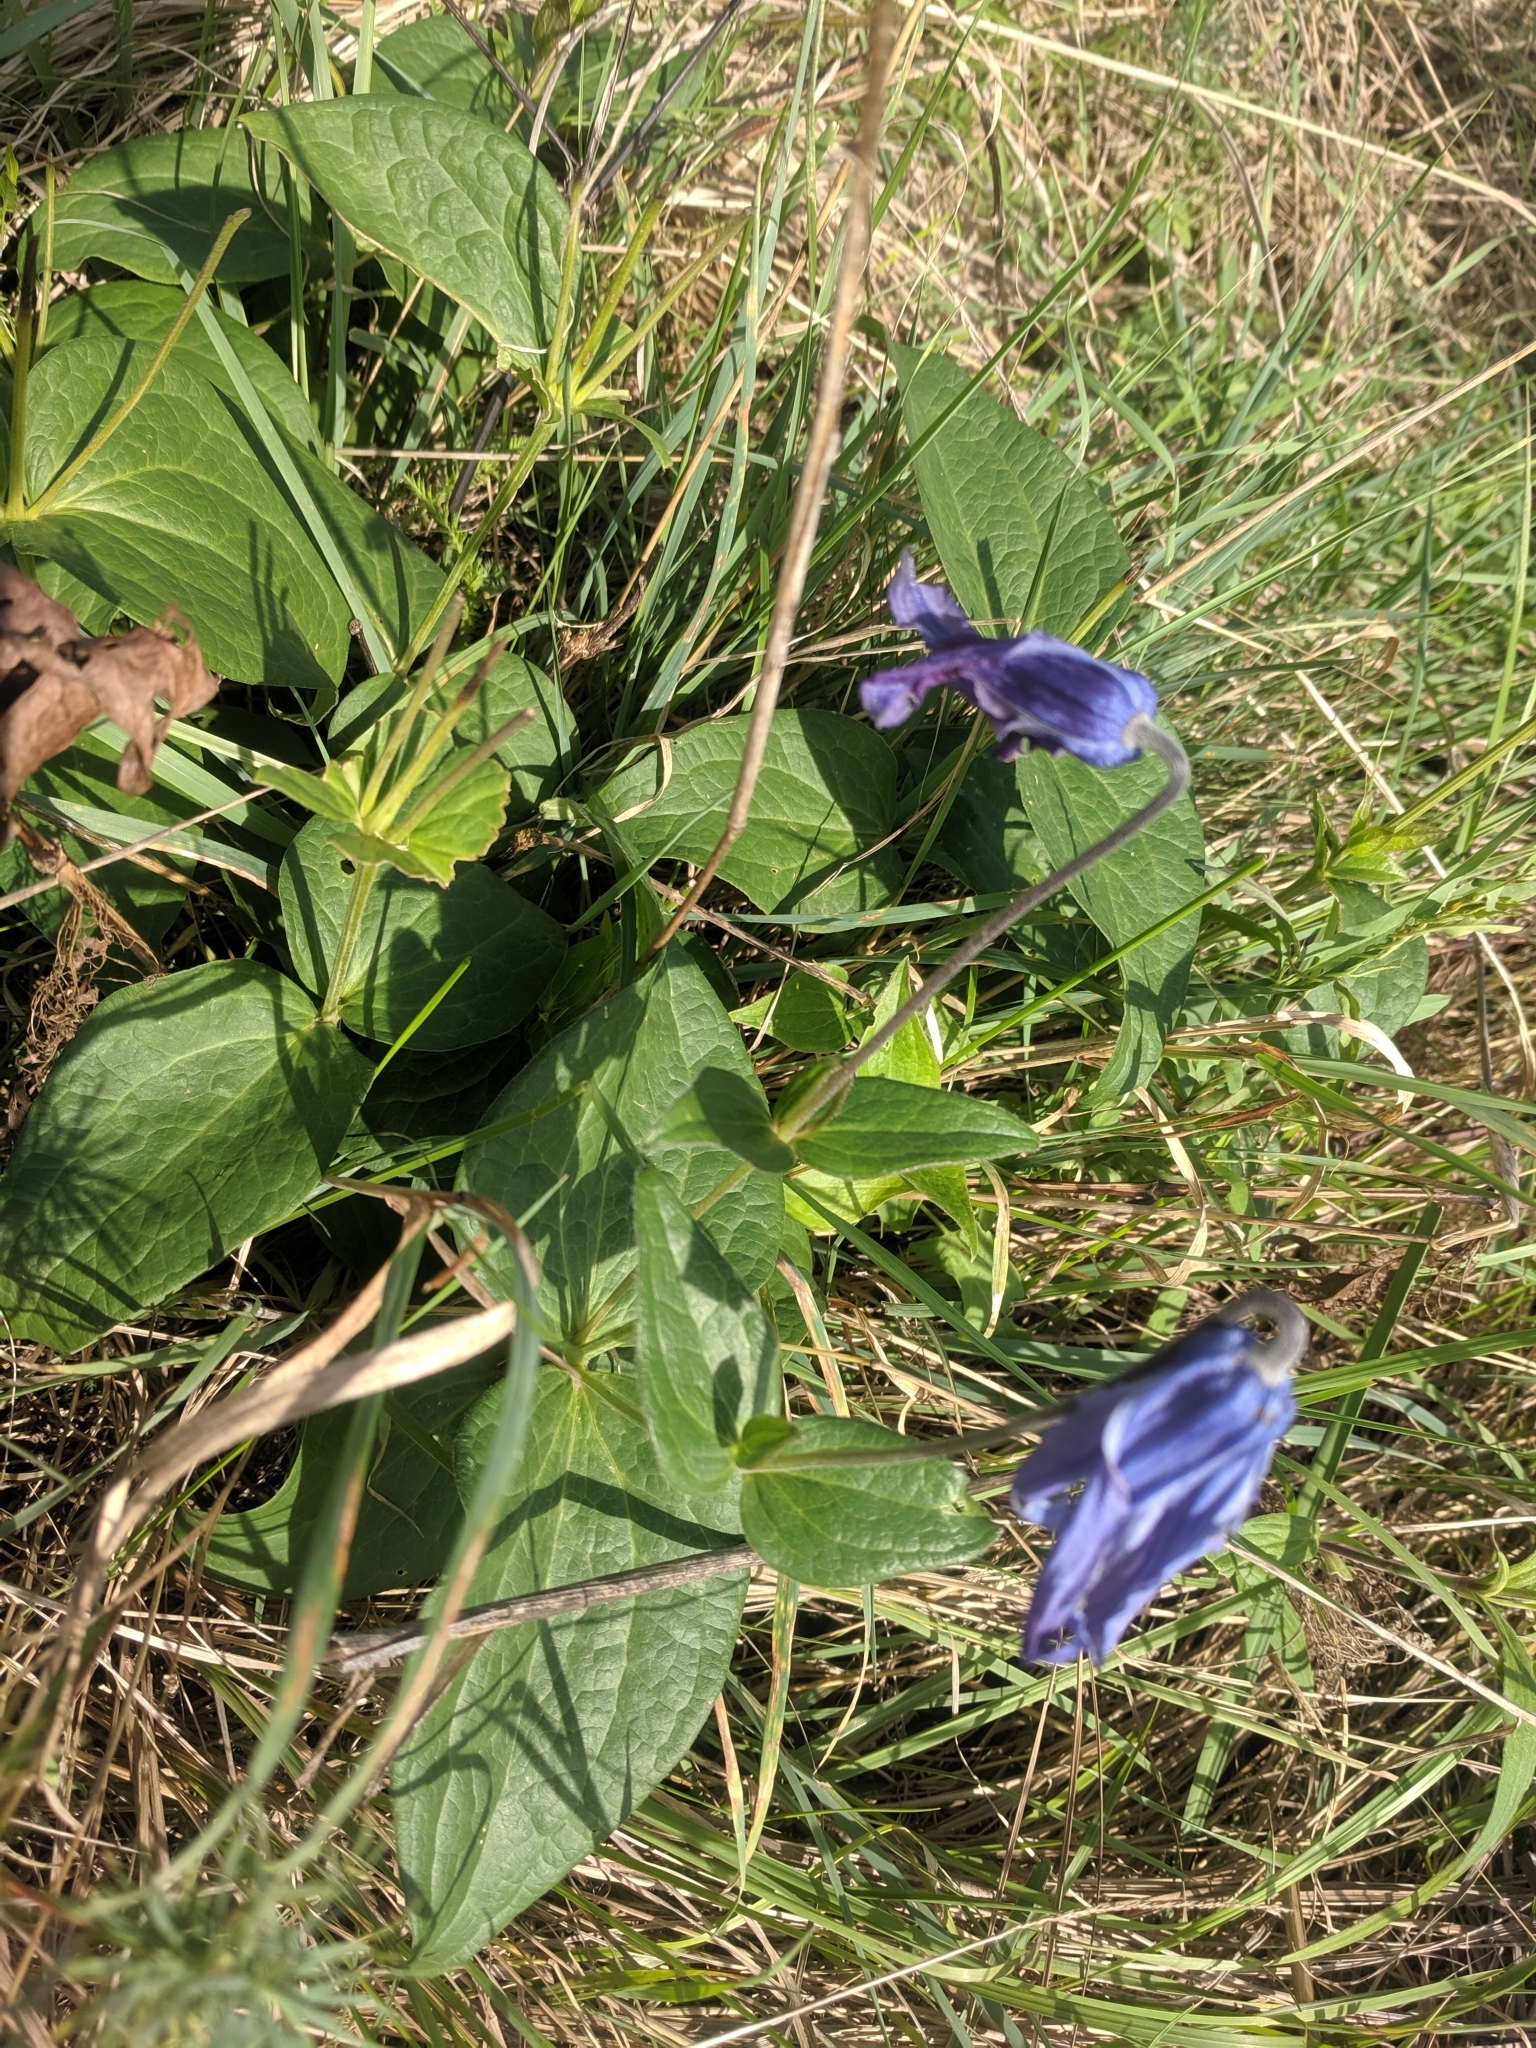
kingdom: Plantae
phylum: Tracheophyta
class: Magnoliopsida
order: Ranunculales
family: Ranunculaceae
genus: Clematis
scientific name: Clematis integrifolia
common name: Solitary clematis
